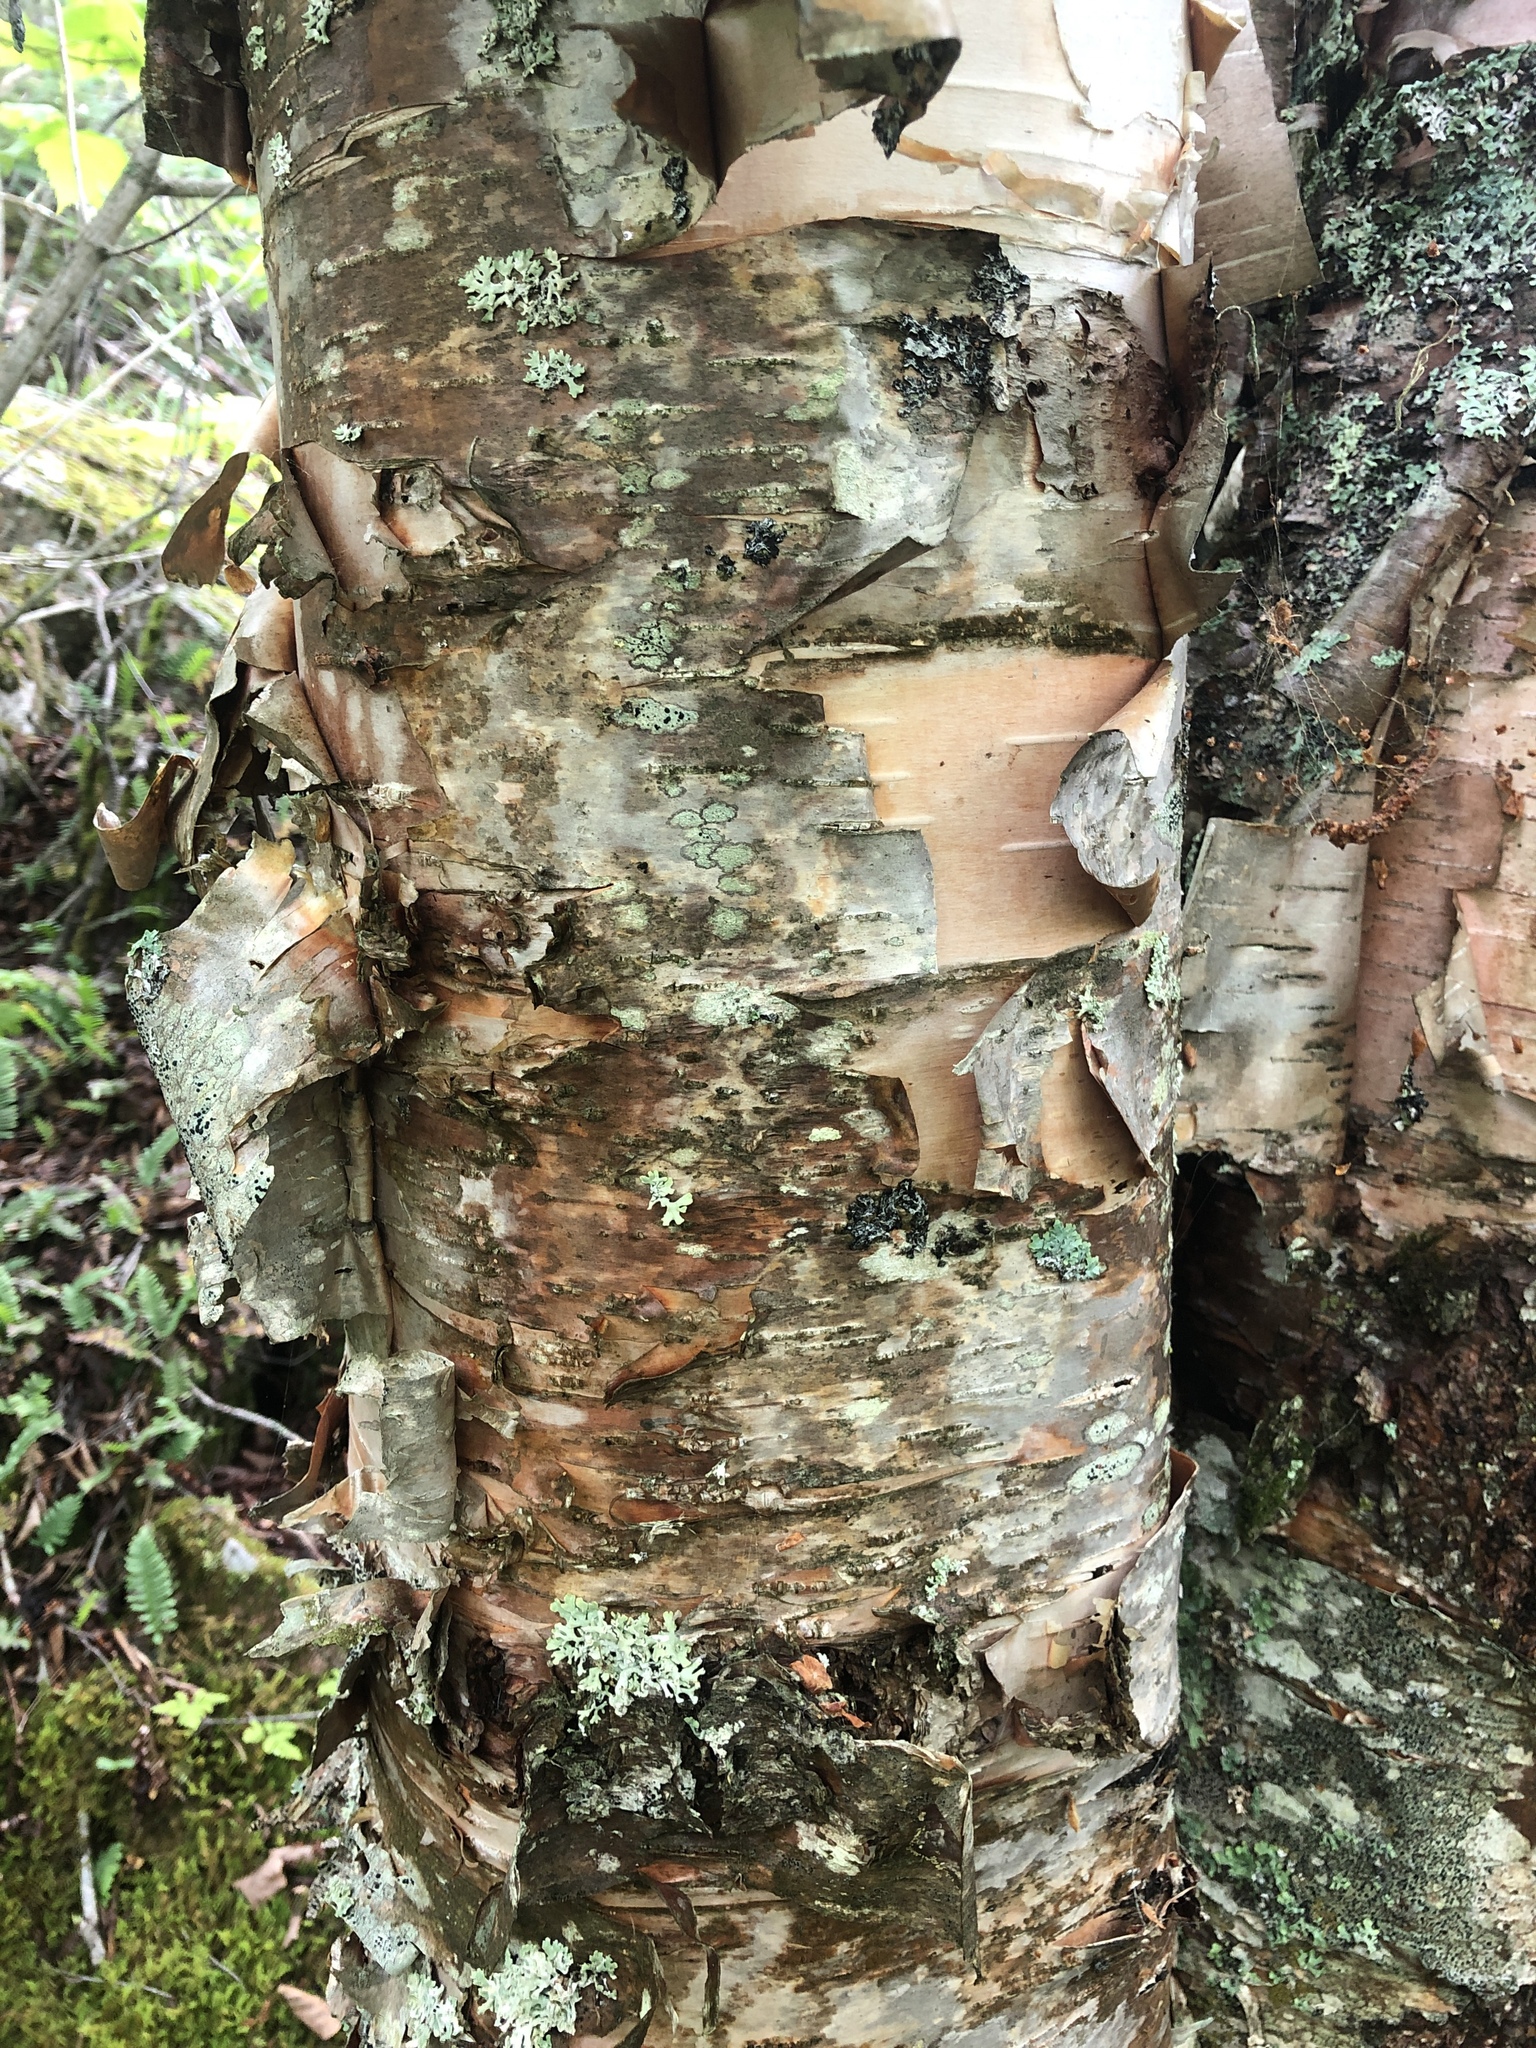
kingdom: Plantae
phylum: Tracheophyta
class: Magnoliopsida
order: Fagales
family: Betulaceae
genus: Betula
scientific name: Betula papyrifera
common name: Paper birch
